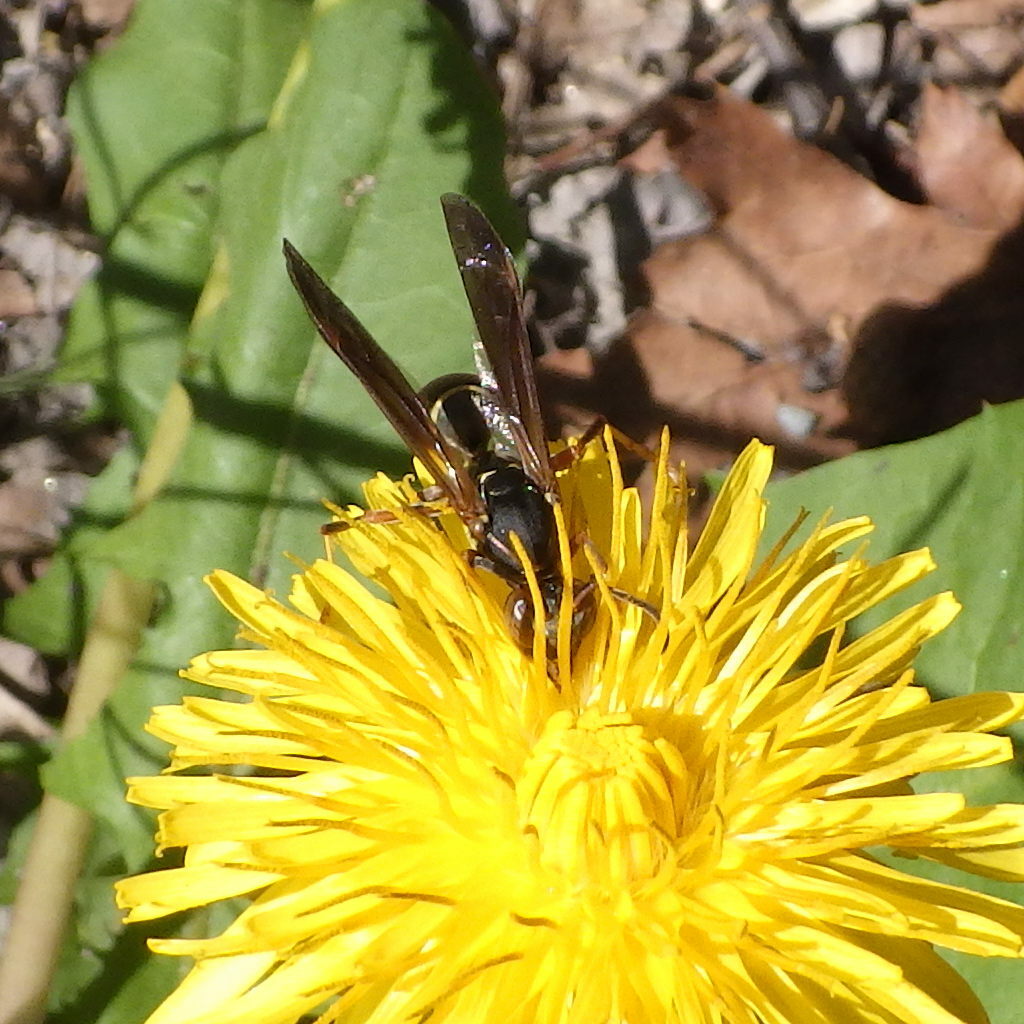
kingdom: Animalia
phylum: Arthropoda
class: Insecta
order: Hymenoptera
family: Eumenidae
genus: Polistes
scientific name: Polistes fuscatus
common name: Dark paper wasp
